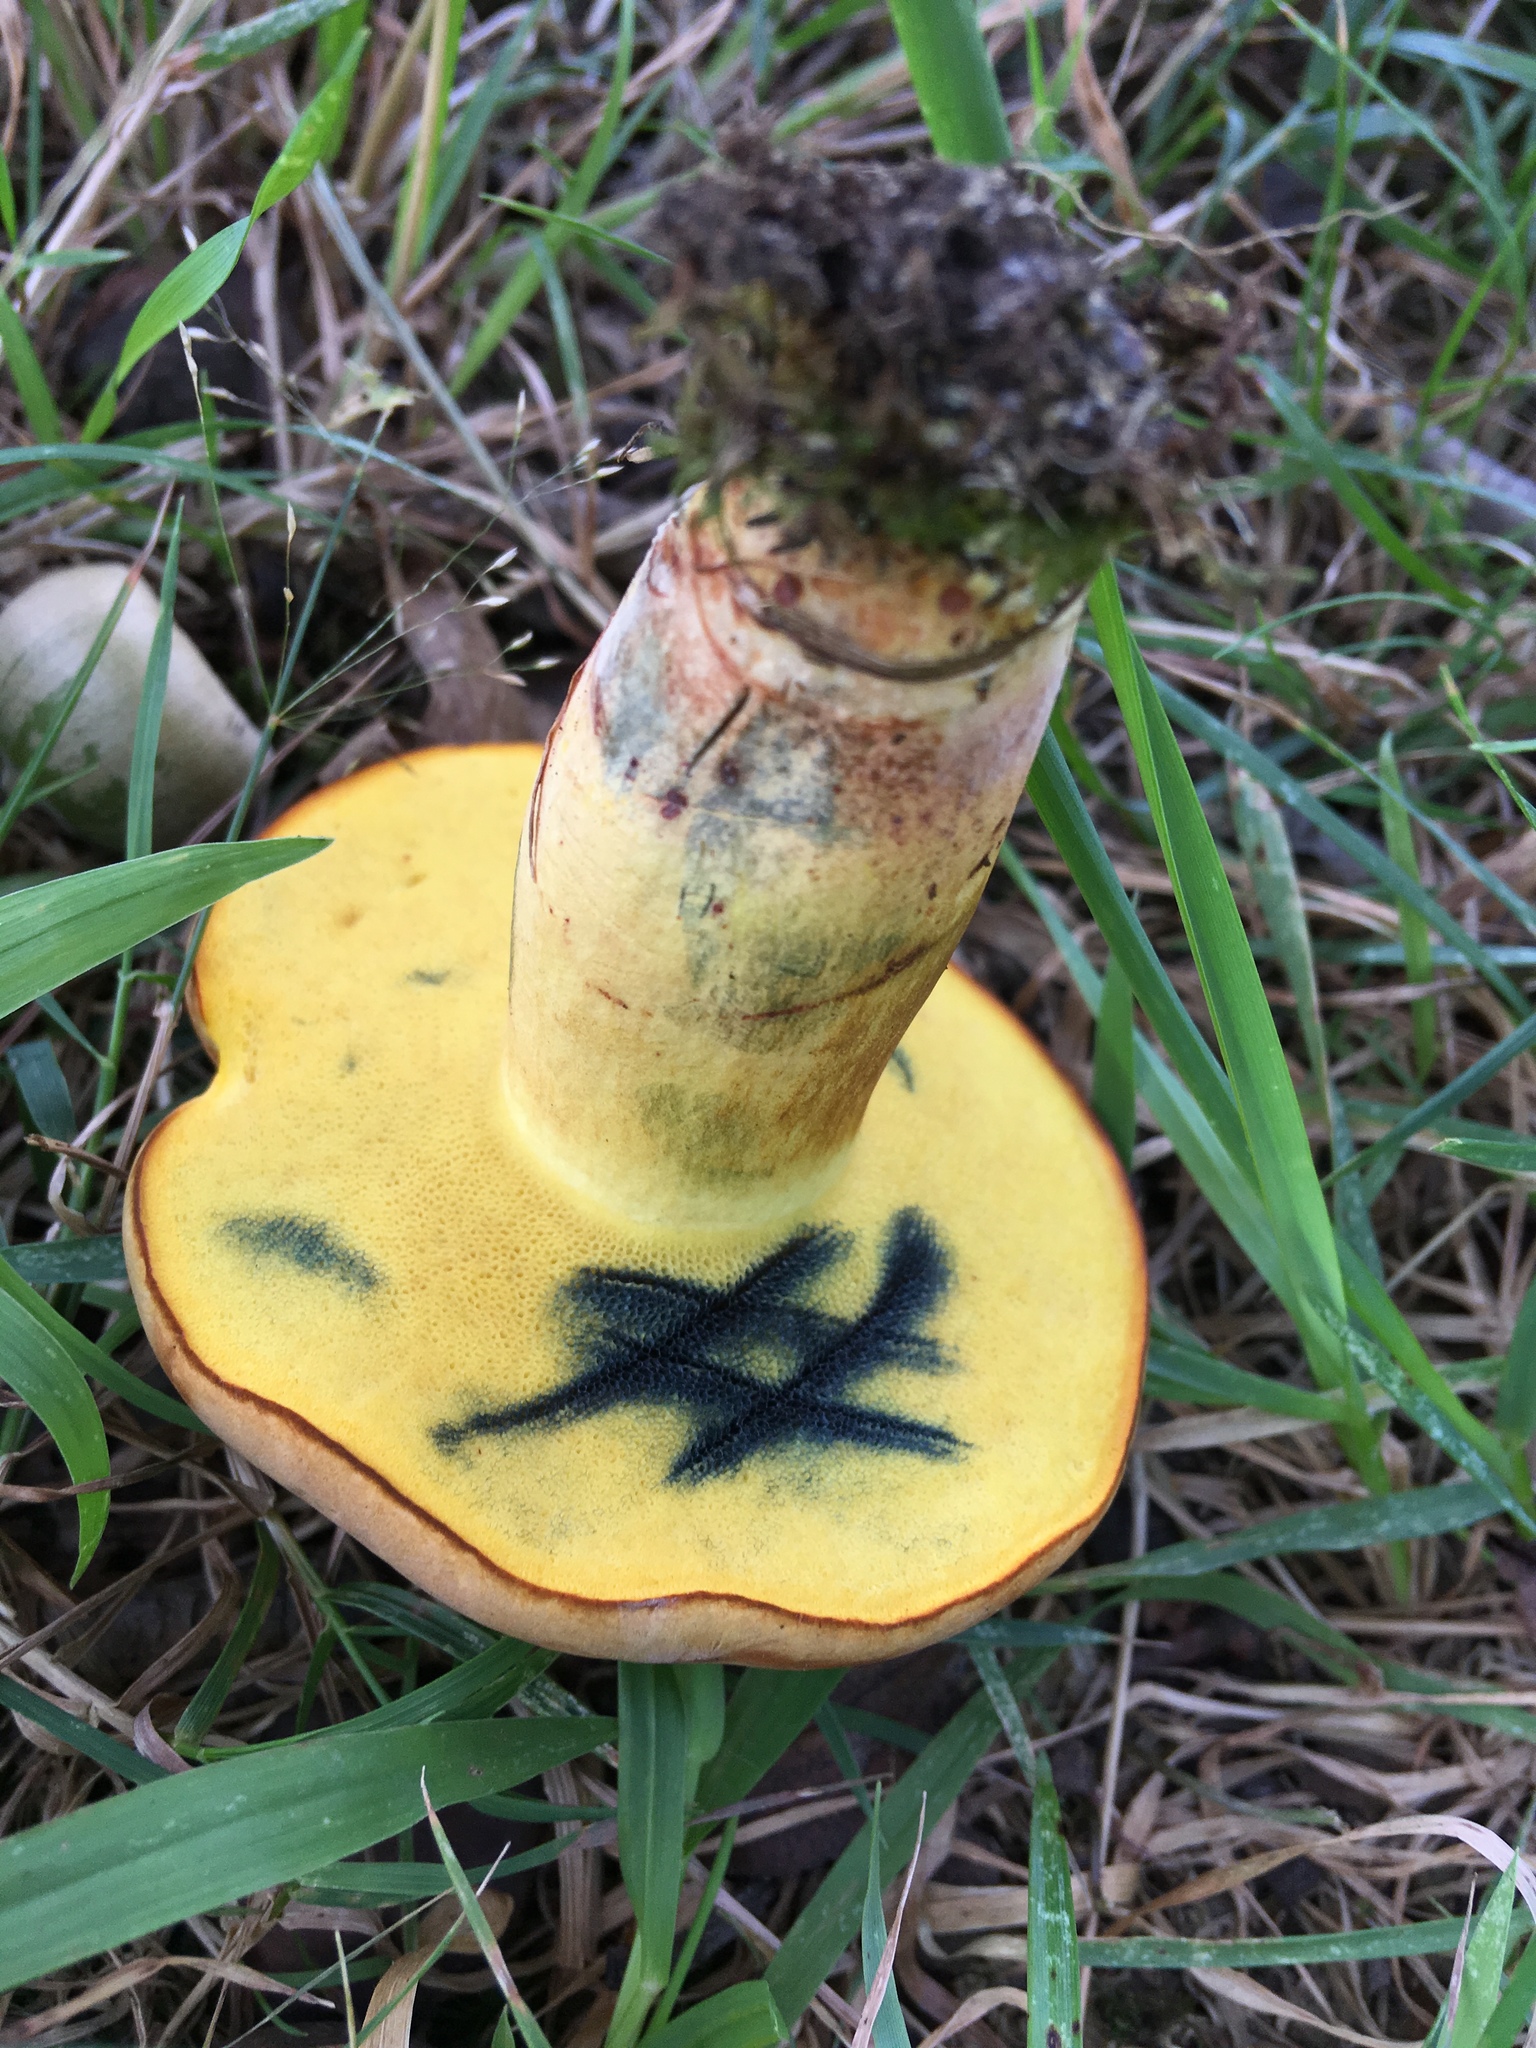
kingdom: Fungi
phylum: Basidiomycota
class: Agaricomycetes
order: Boletales
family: Boletaceae
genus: Cyanoboletus
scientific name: Cyanoboletus pulverulentus
